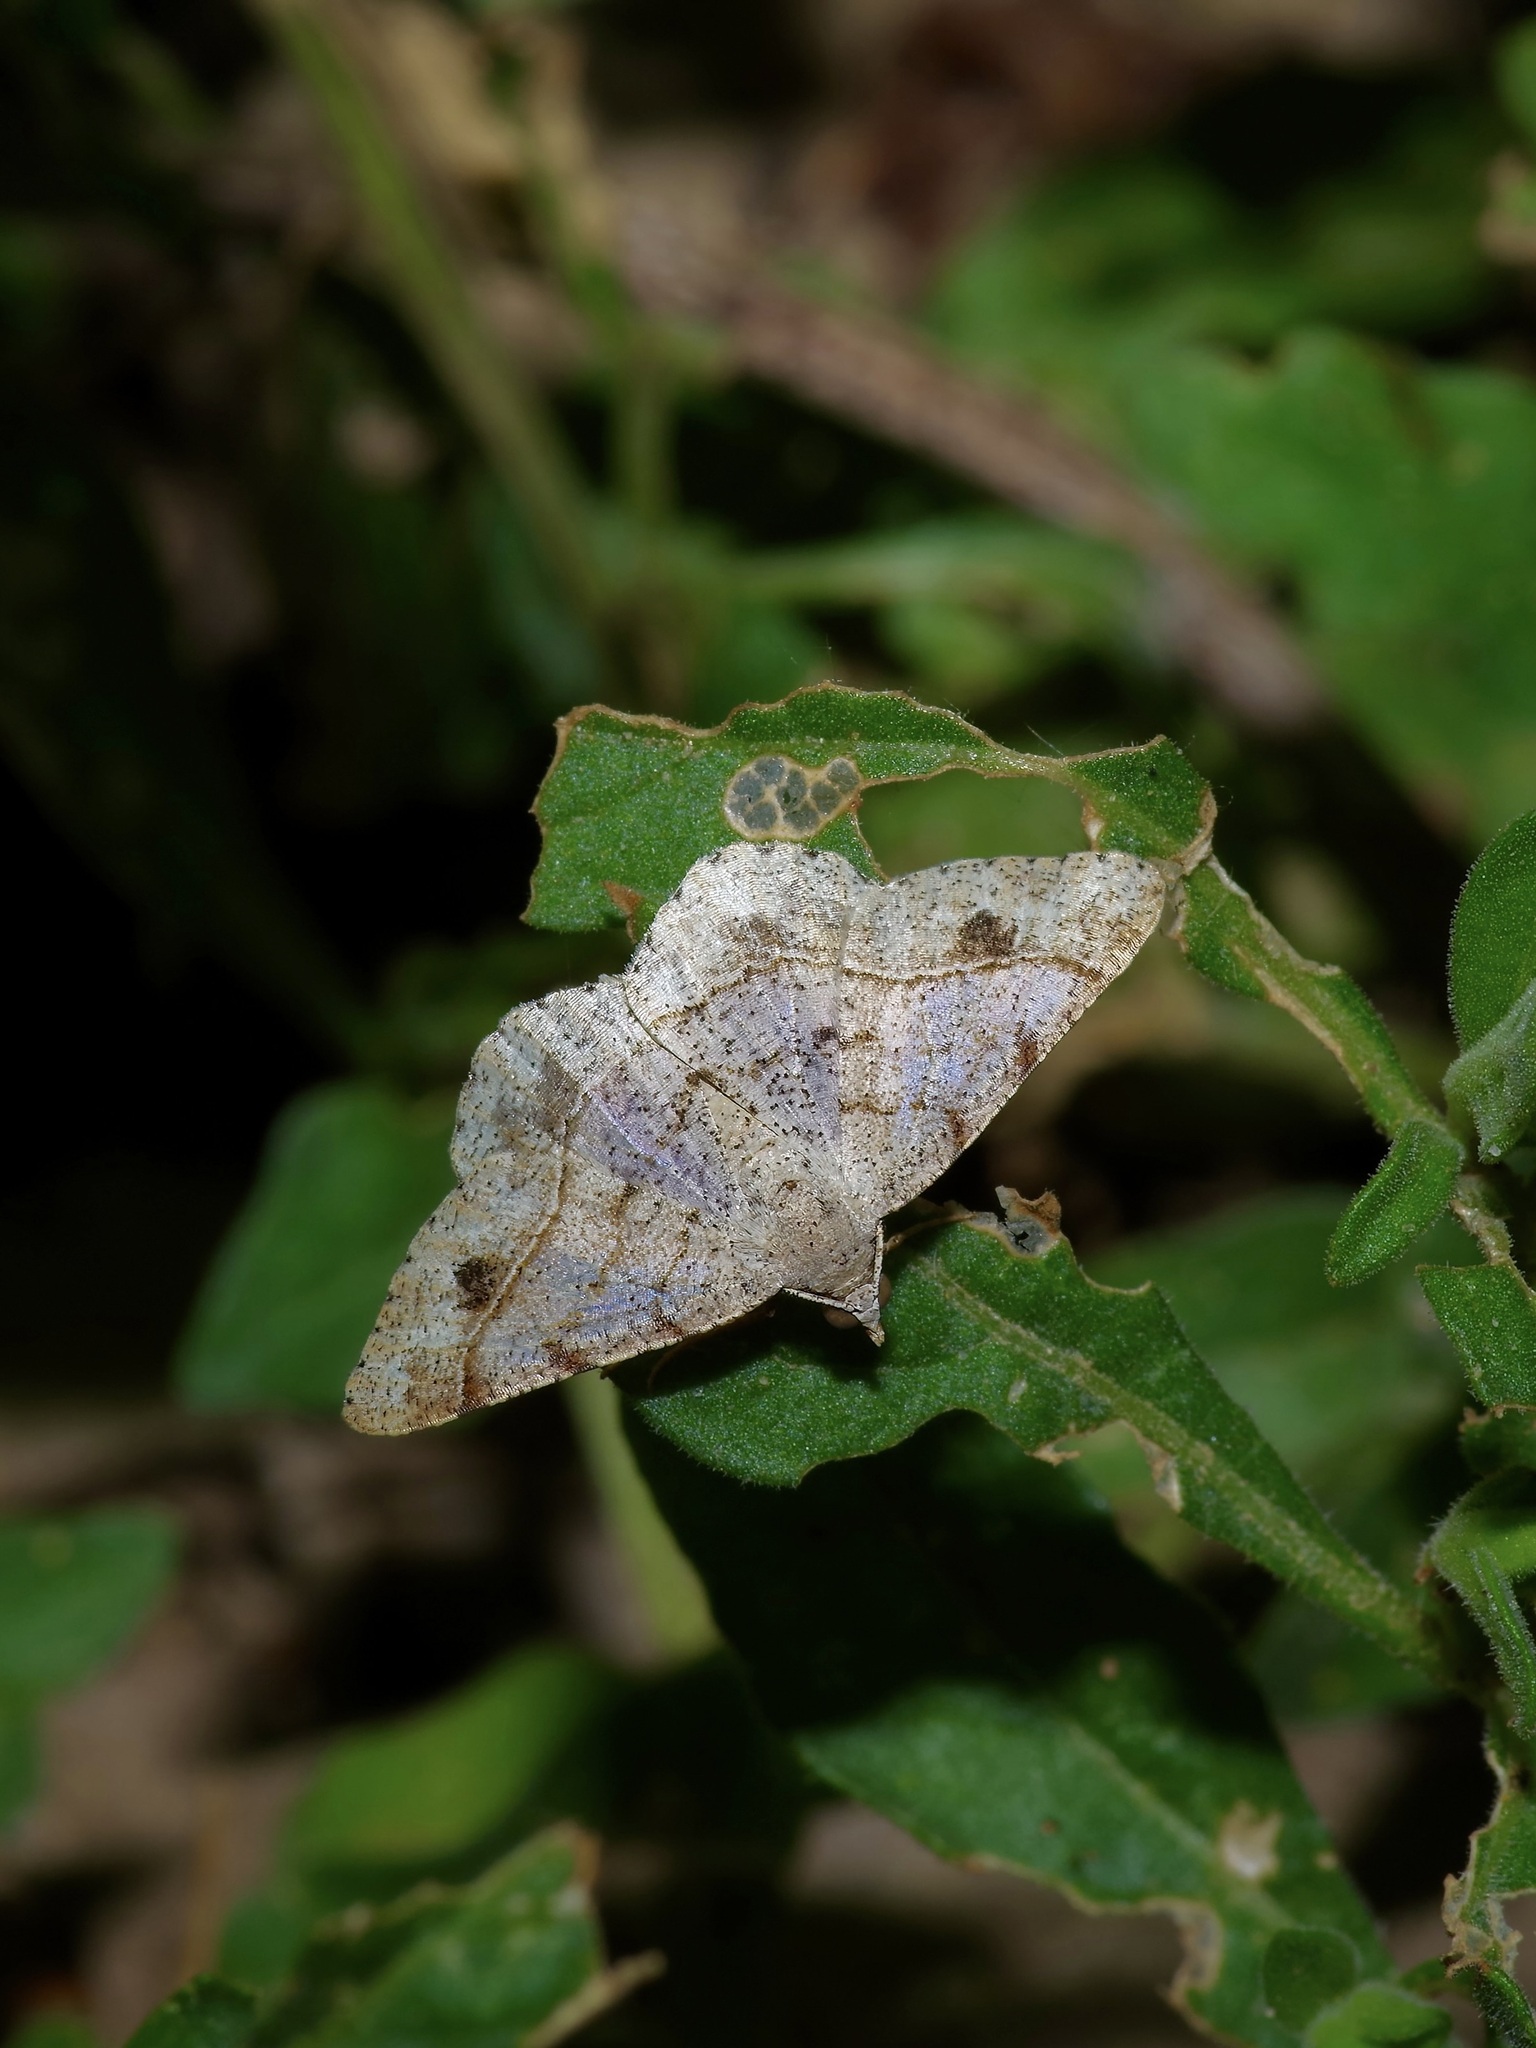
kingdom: Animalia
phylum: Arthropoda
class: Insecta
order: Lepidoptera
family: Geometridae
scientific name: Geometridae
